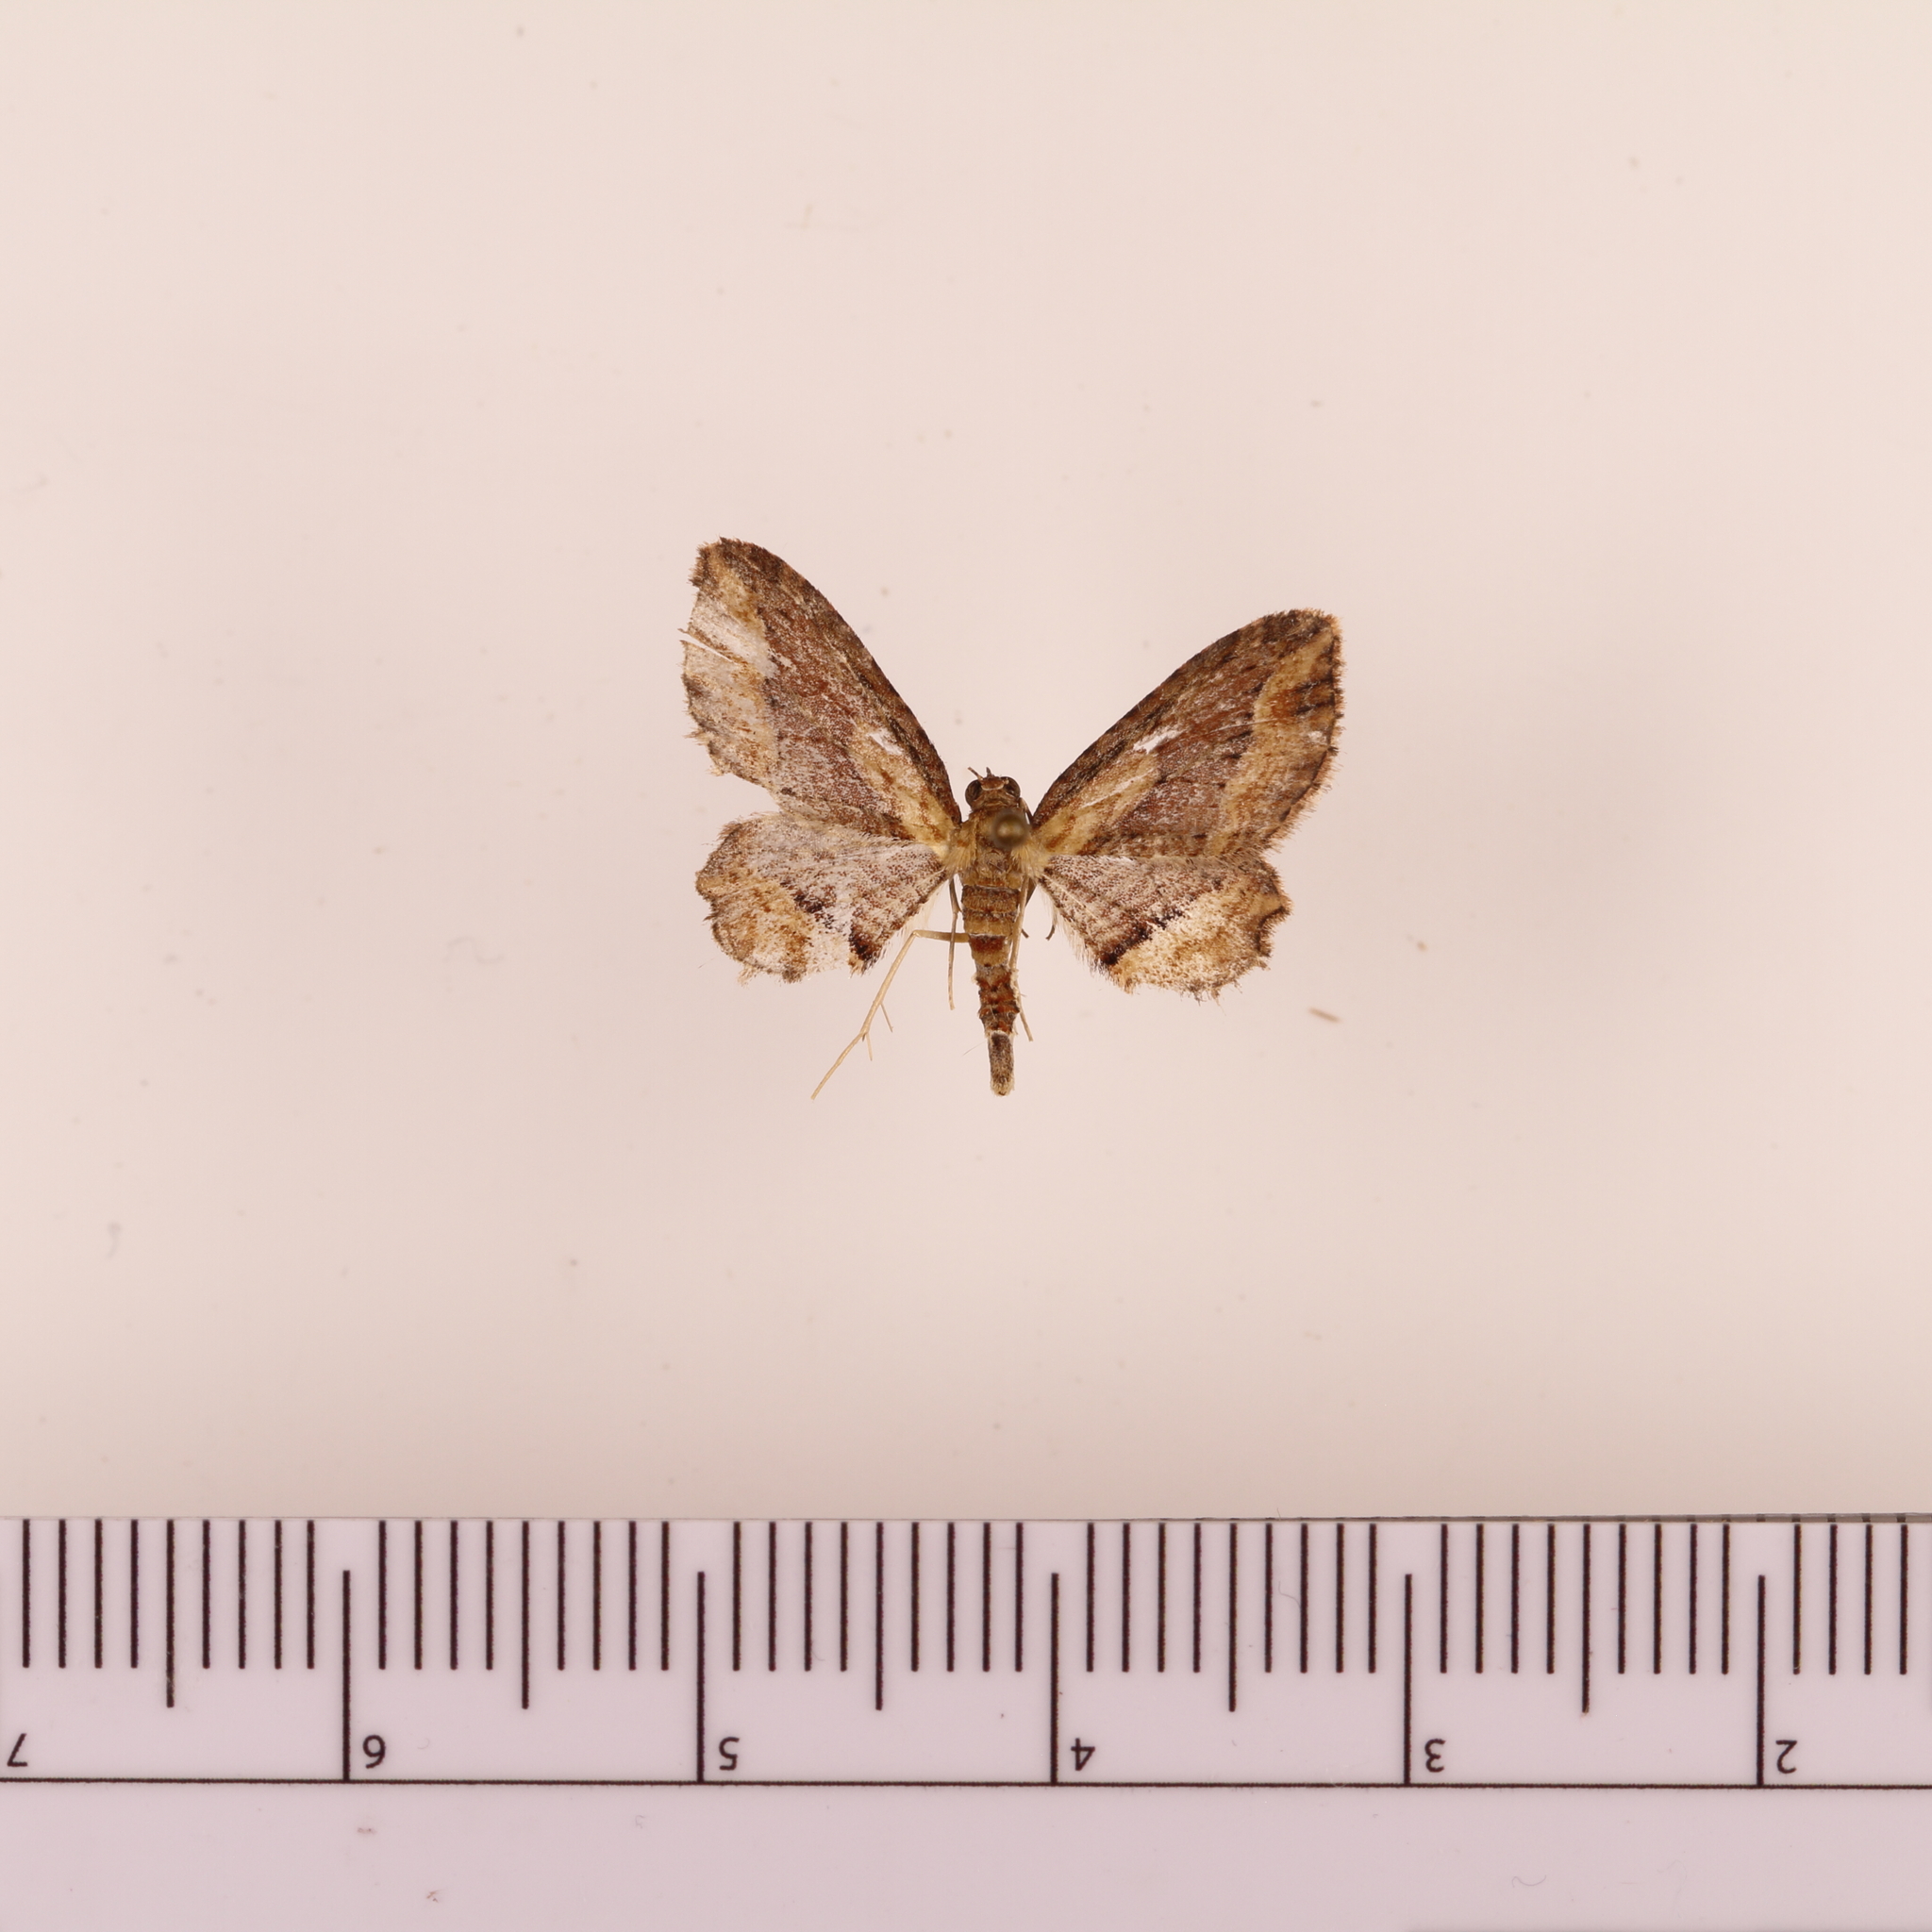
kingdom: Animalia
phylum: Arthropoda
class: Insecta
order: Lepidoptera
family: Geometridae
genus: Chloroclystis
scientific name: Chloroclystis filata
